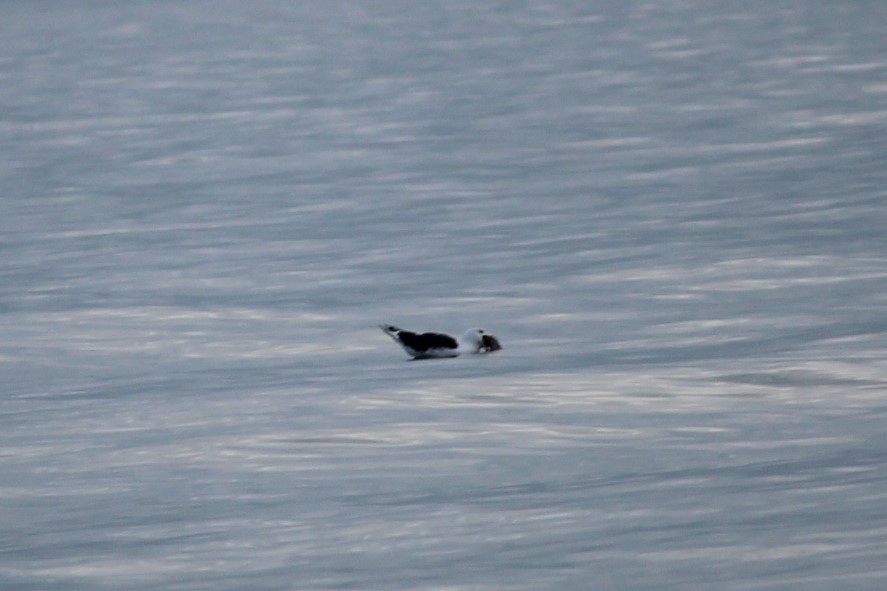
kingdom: Animalia
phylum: Chordata
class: Aves
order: Charadriiformes
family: Laridae
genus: Larus
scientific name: Larus marinus
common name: Great black-backed gull
